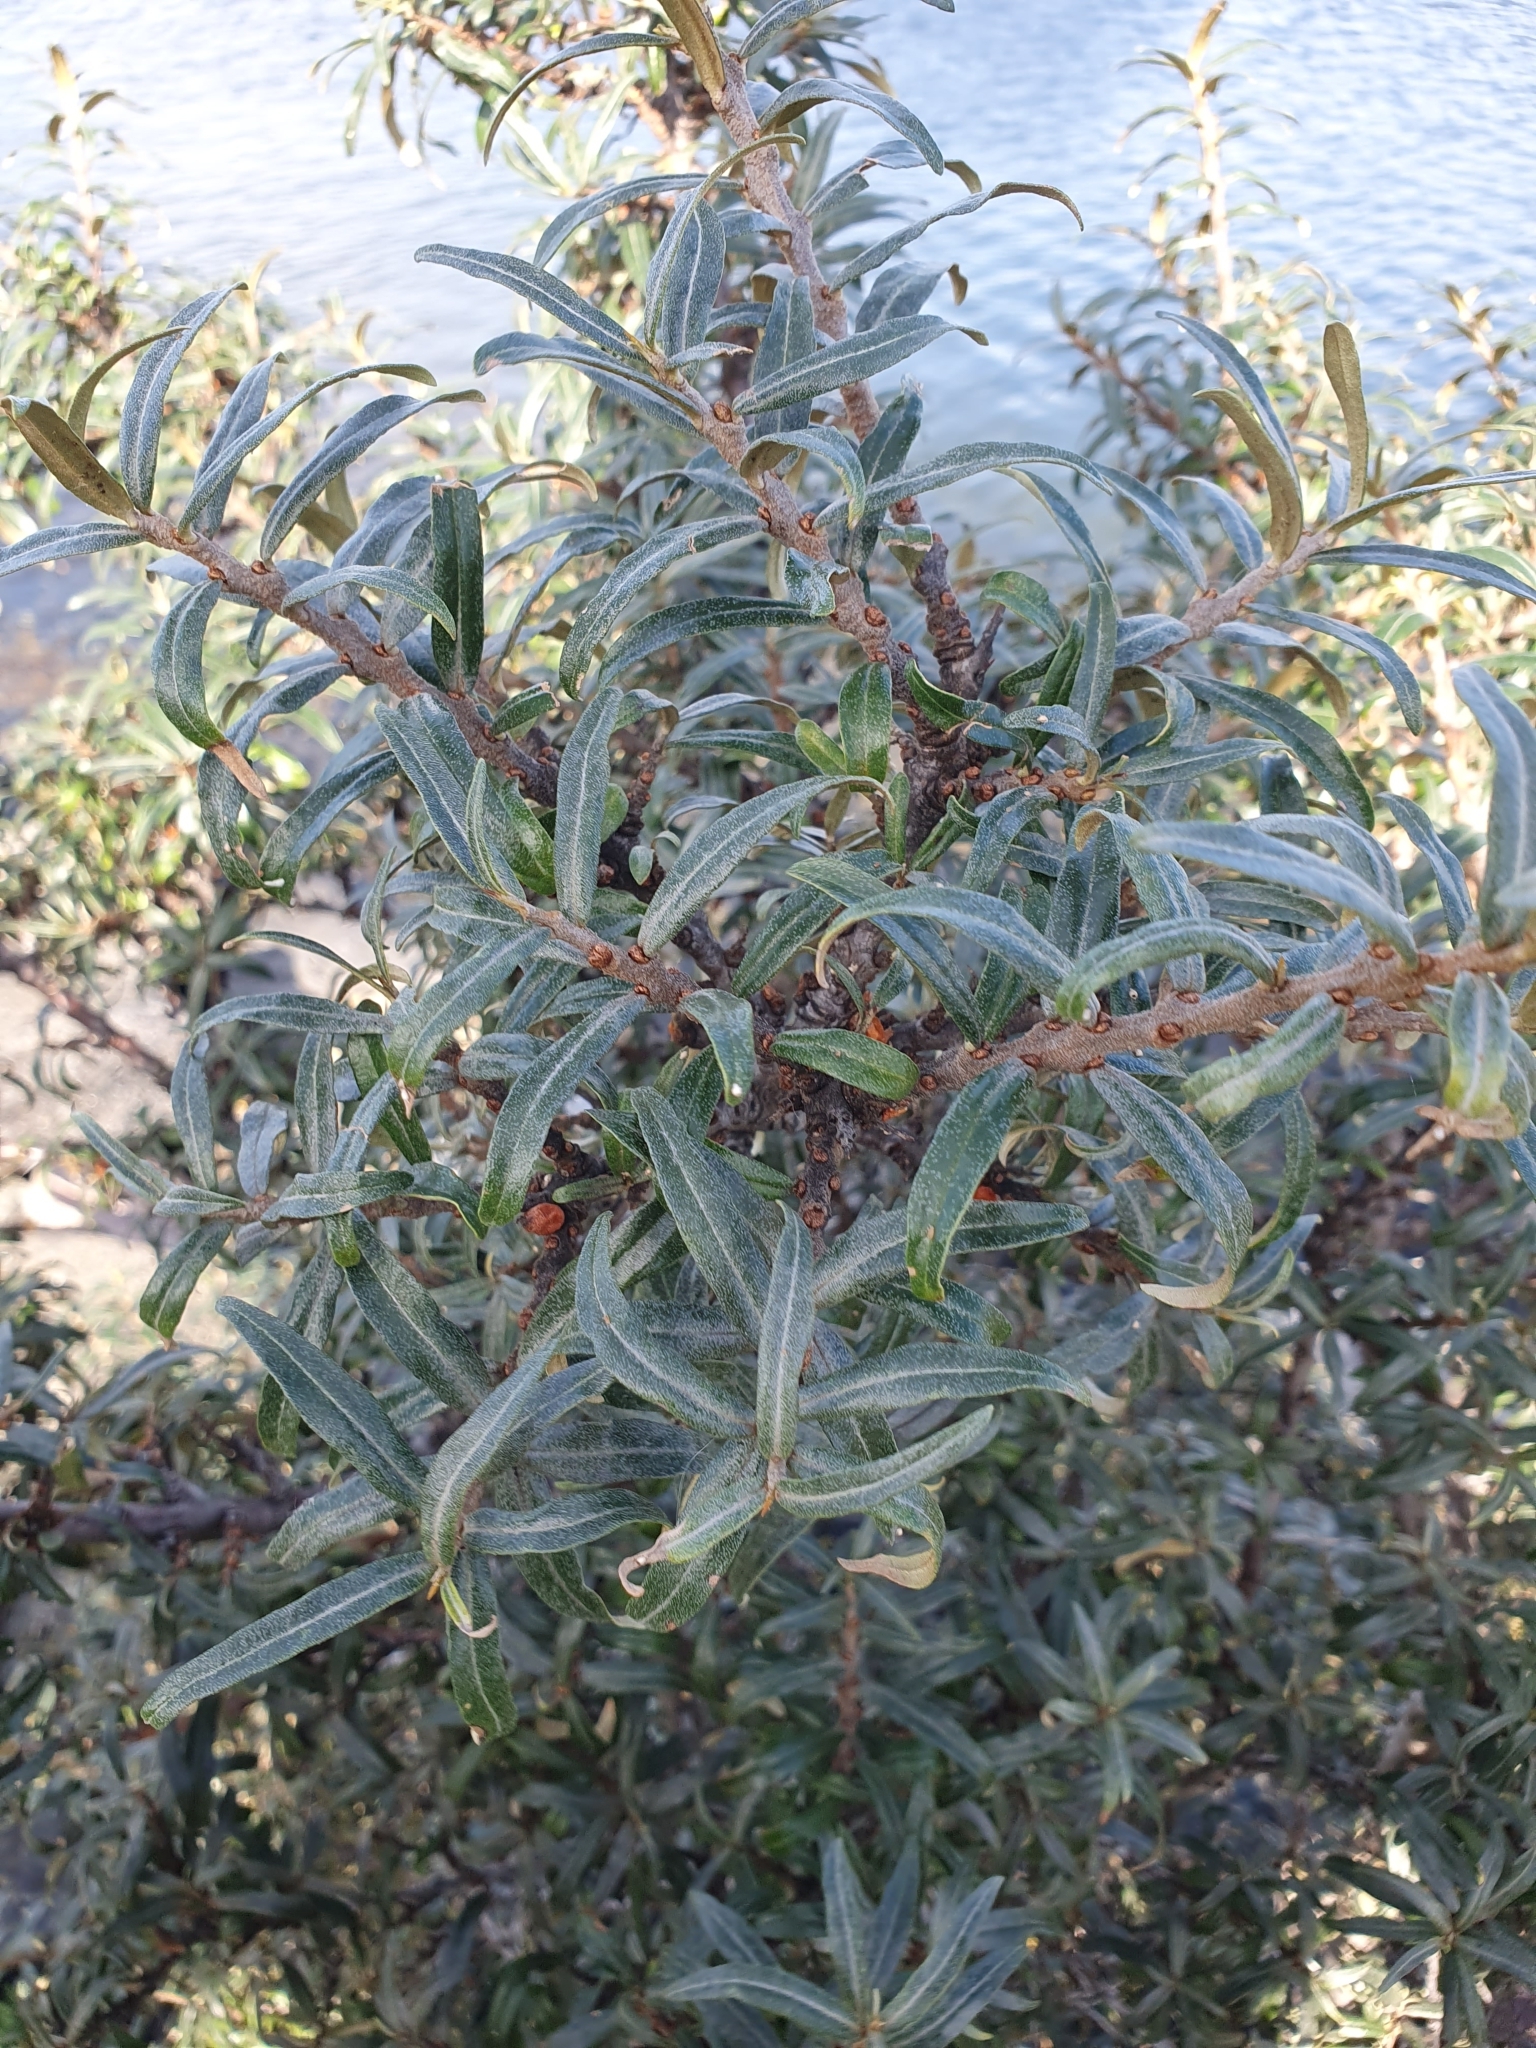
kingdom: Plantae
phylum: Tracheophyta
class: Magnoliopsida
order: Rosales
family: Elaeagnaceae
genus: Hippophae
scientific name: Hippophae rhamnoides
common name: Sea-buckthorn
